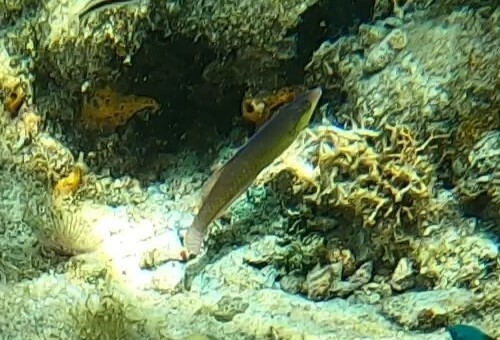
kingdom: Animalia
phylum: Chordata
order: Perciformes
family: Labridae
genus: Halichoeres
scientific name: Halichoeres garnoti
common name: Yellowhead wrasse
